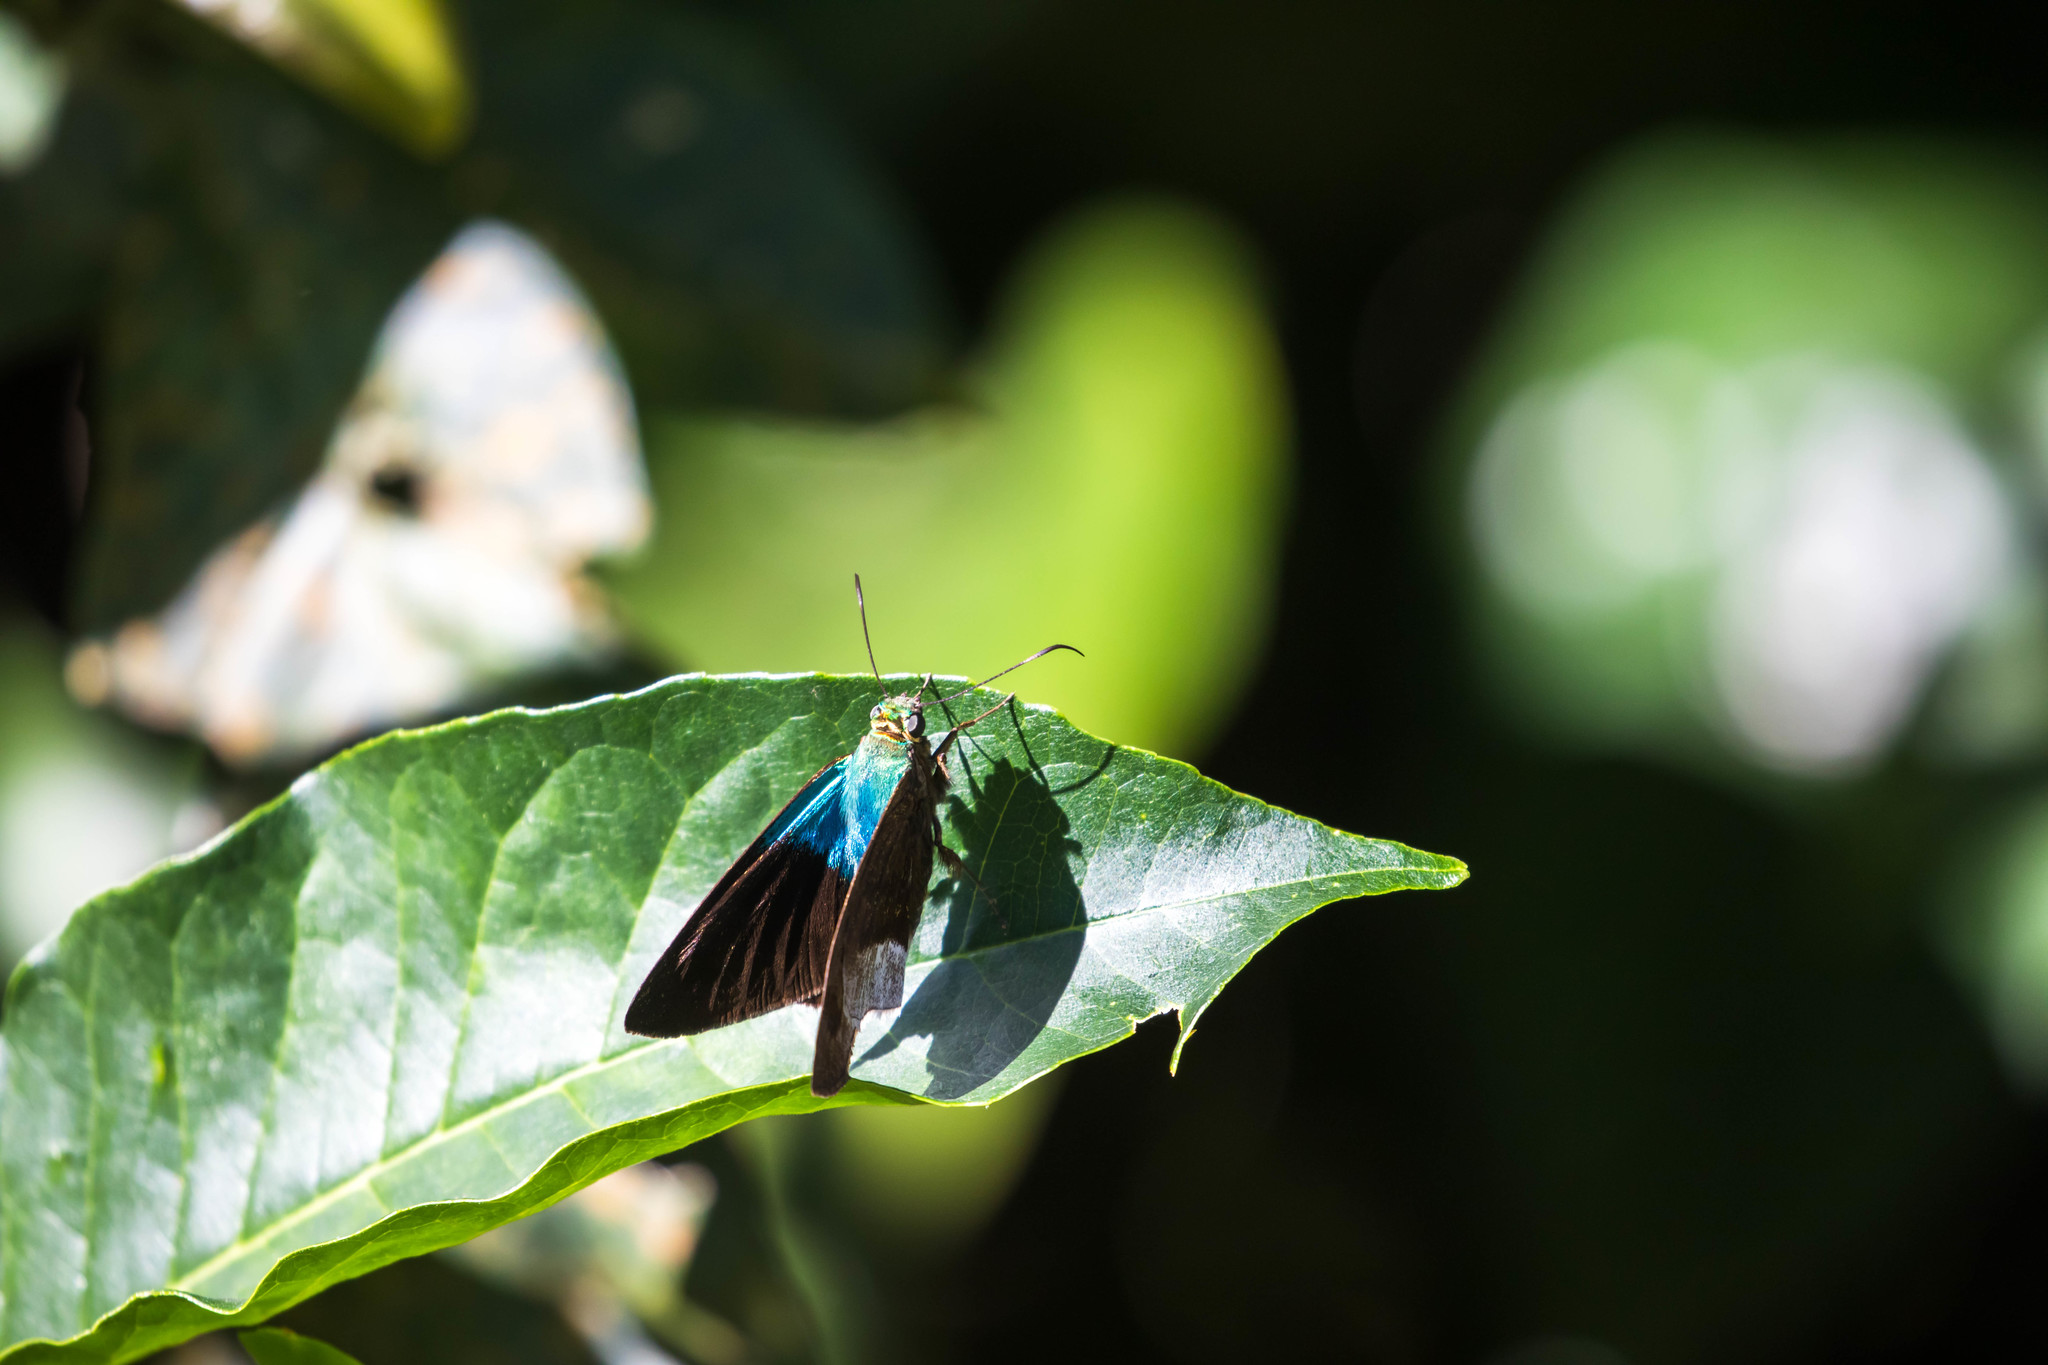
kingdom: Animalia
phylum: Arthropoda
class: Insecta
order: Lepidoptera
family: Hesperiidae
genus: Astraptes
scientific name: Astraptes alardus
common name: Frosted flasher
